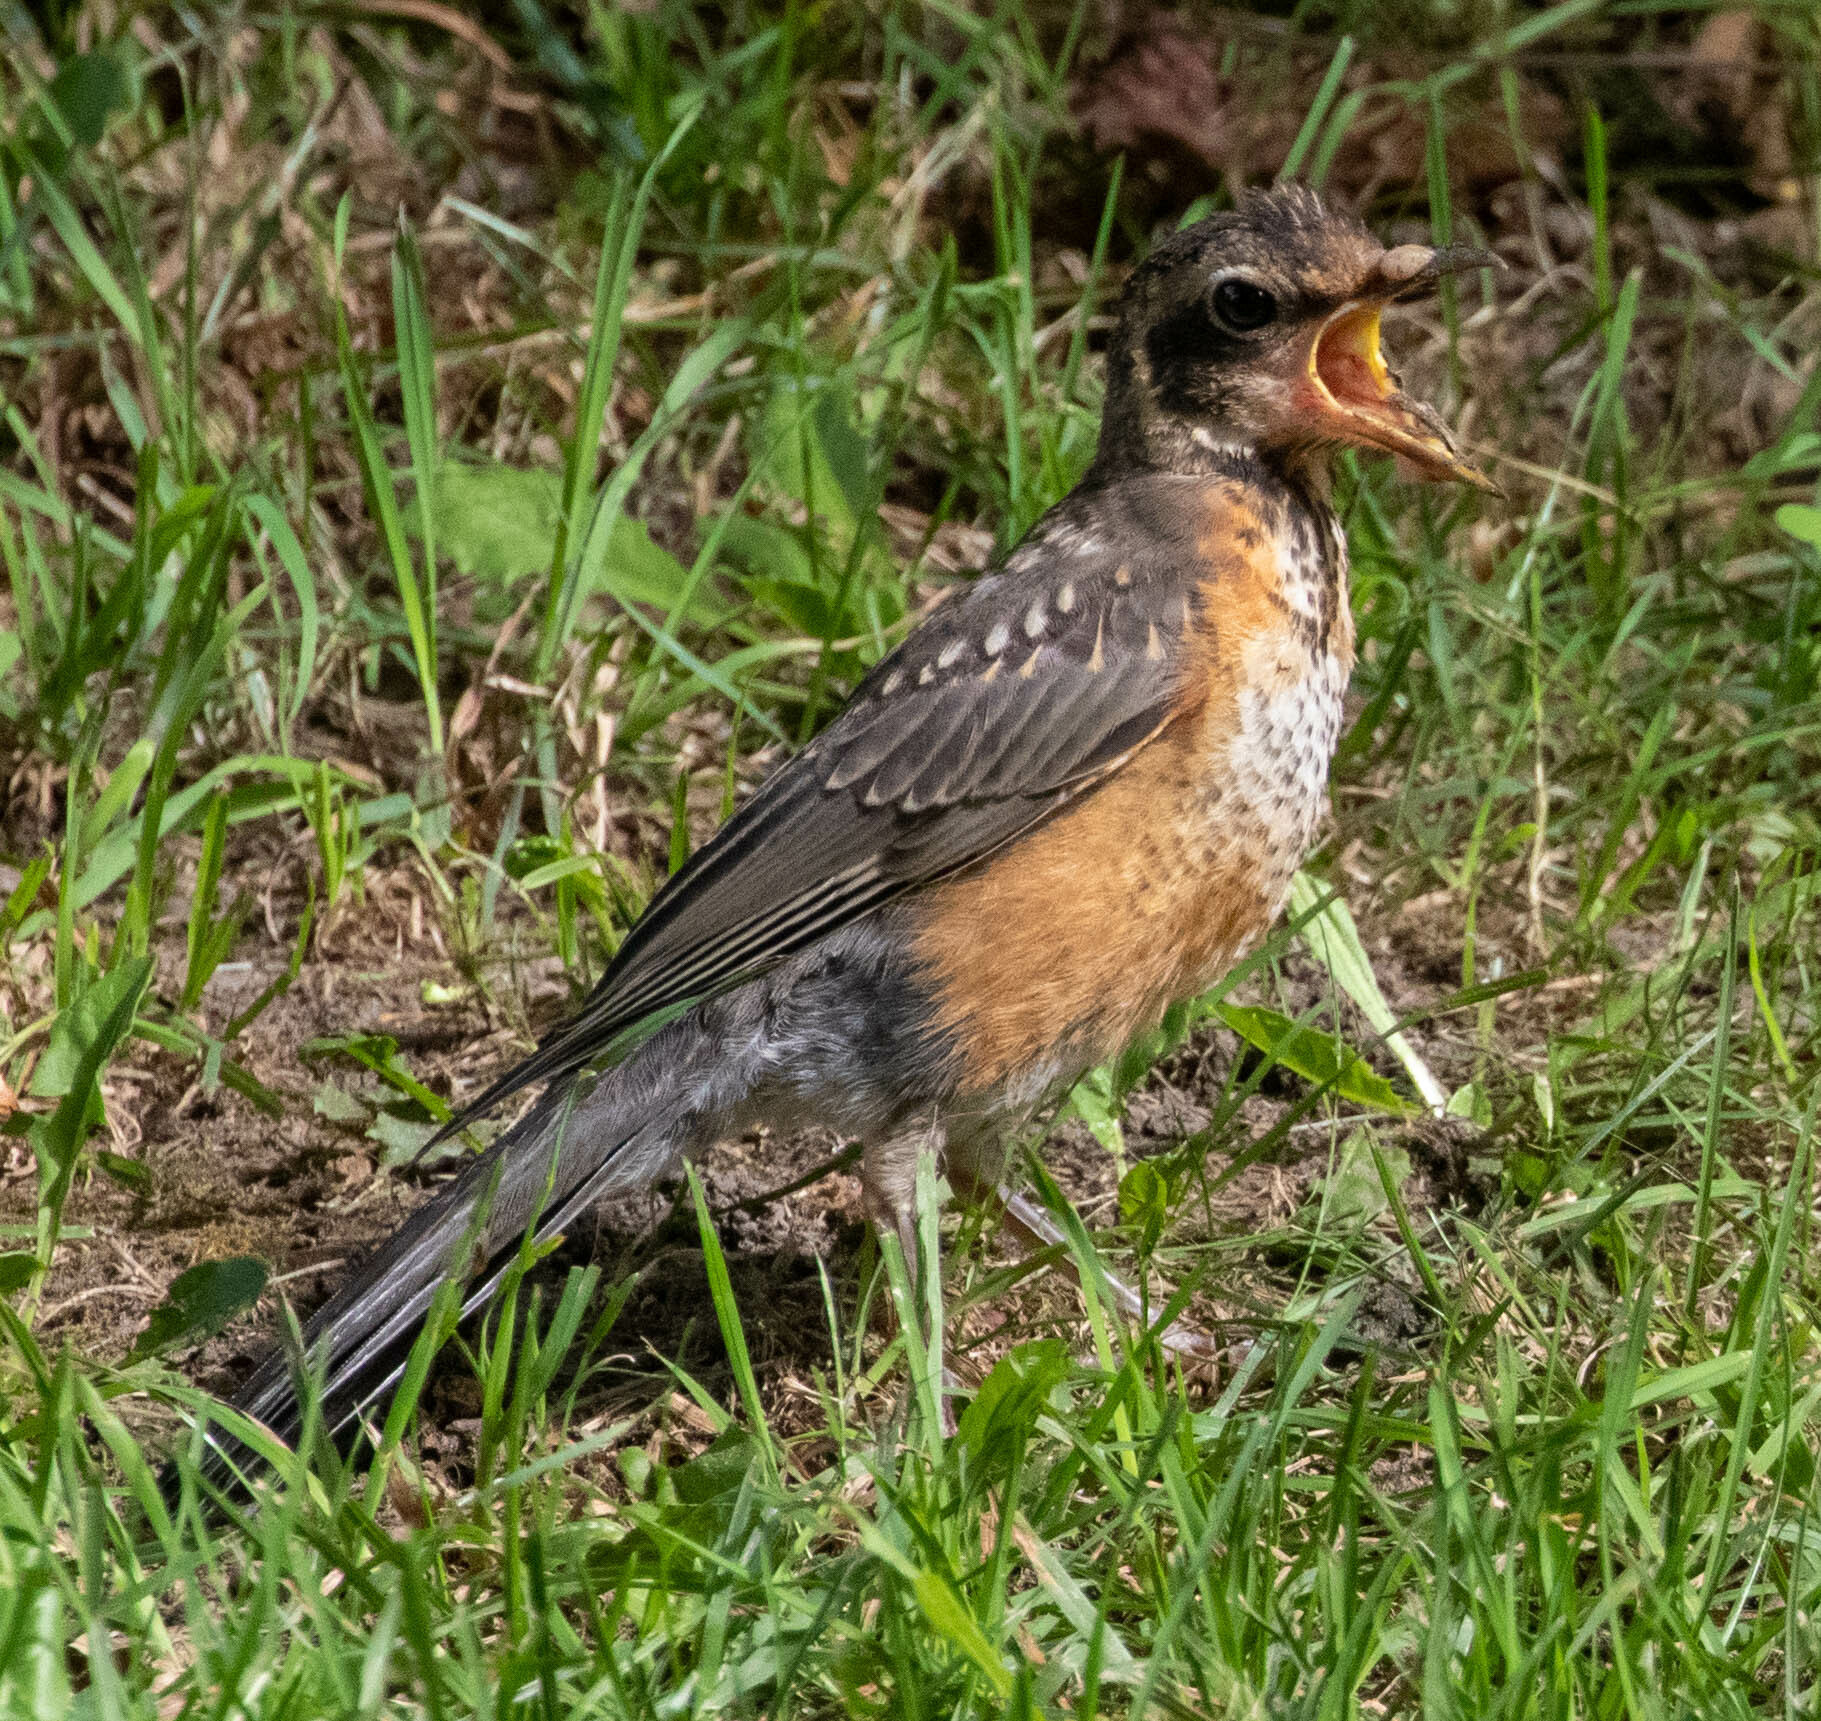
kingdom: Animalia
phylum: Chordata
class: Aves
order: Passeriformes
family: Turdidae
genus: Turdus
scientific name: Turdus migratorius
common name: American robin
